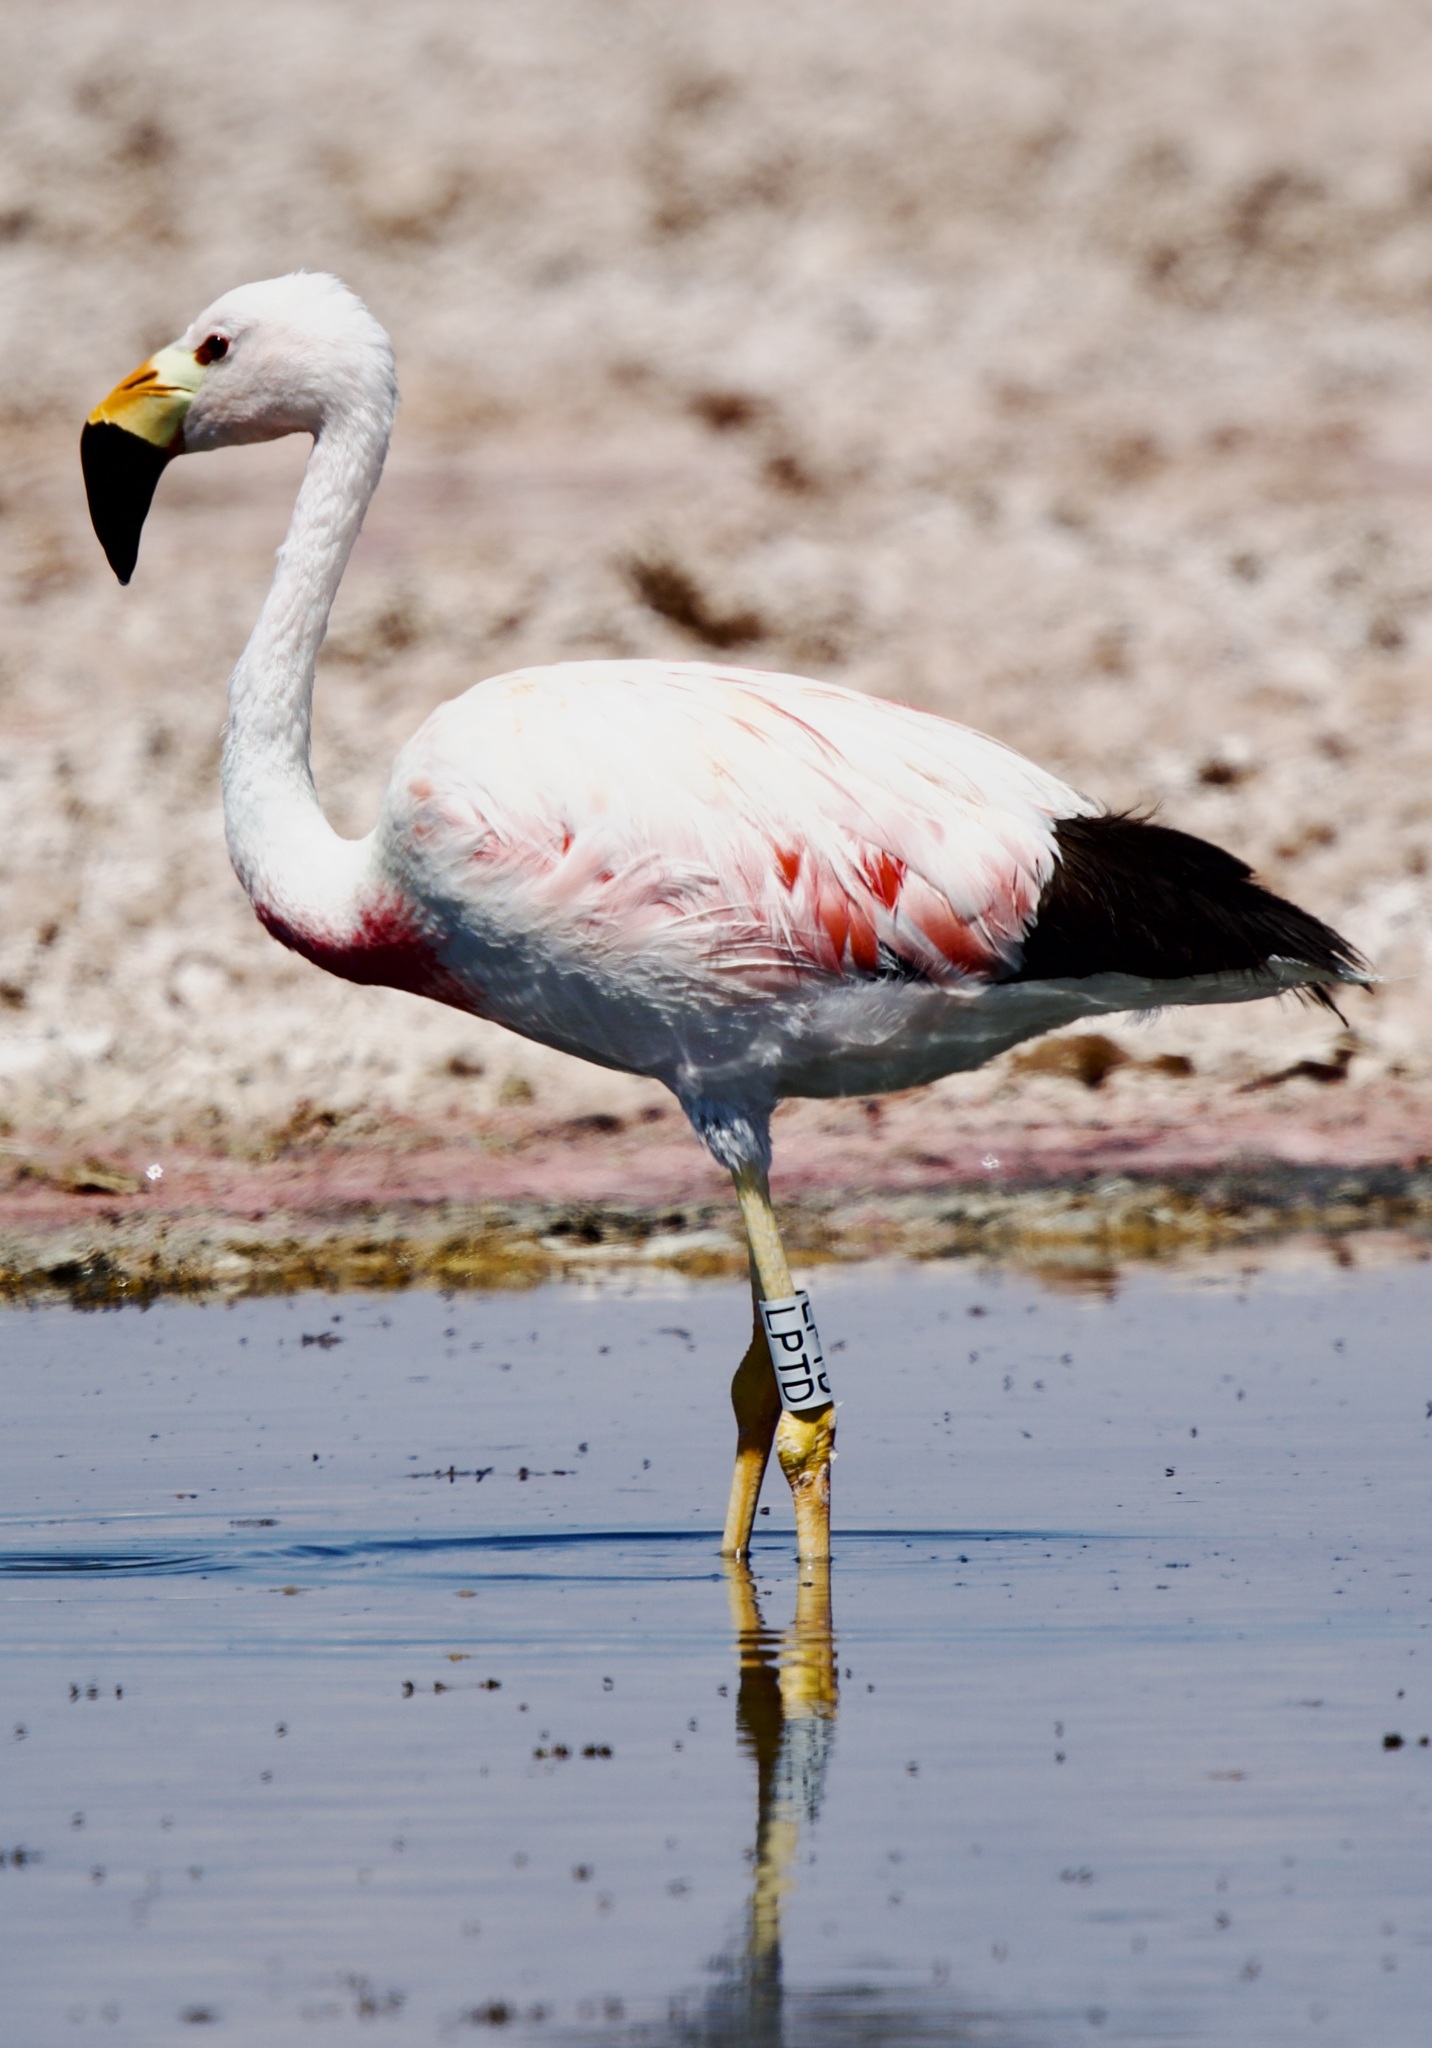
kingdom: Animalia
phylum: Chordata
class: Aves
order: Phoenicopteriformes
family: Phoenicopteridae
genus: Phoenicoparrus
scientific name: Phoenicoparrus andinus
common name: Andean flamingo
